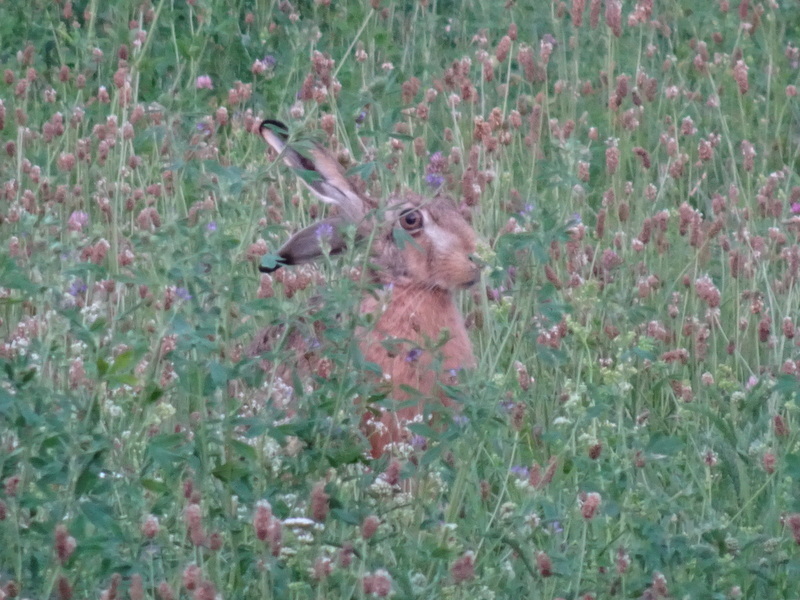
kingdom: Animalia
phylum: Chordata
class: Mammalia
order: Lagomorpha
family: Leporidae
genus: Lepus
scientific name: Lepus europaeus
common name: European hare
